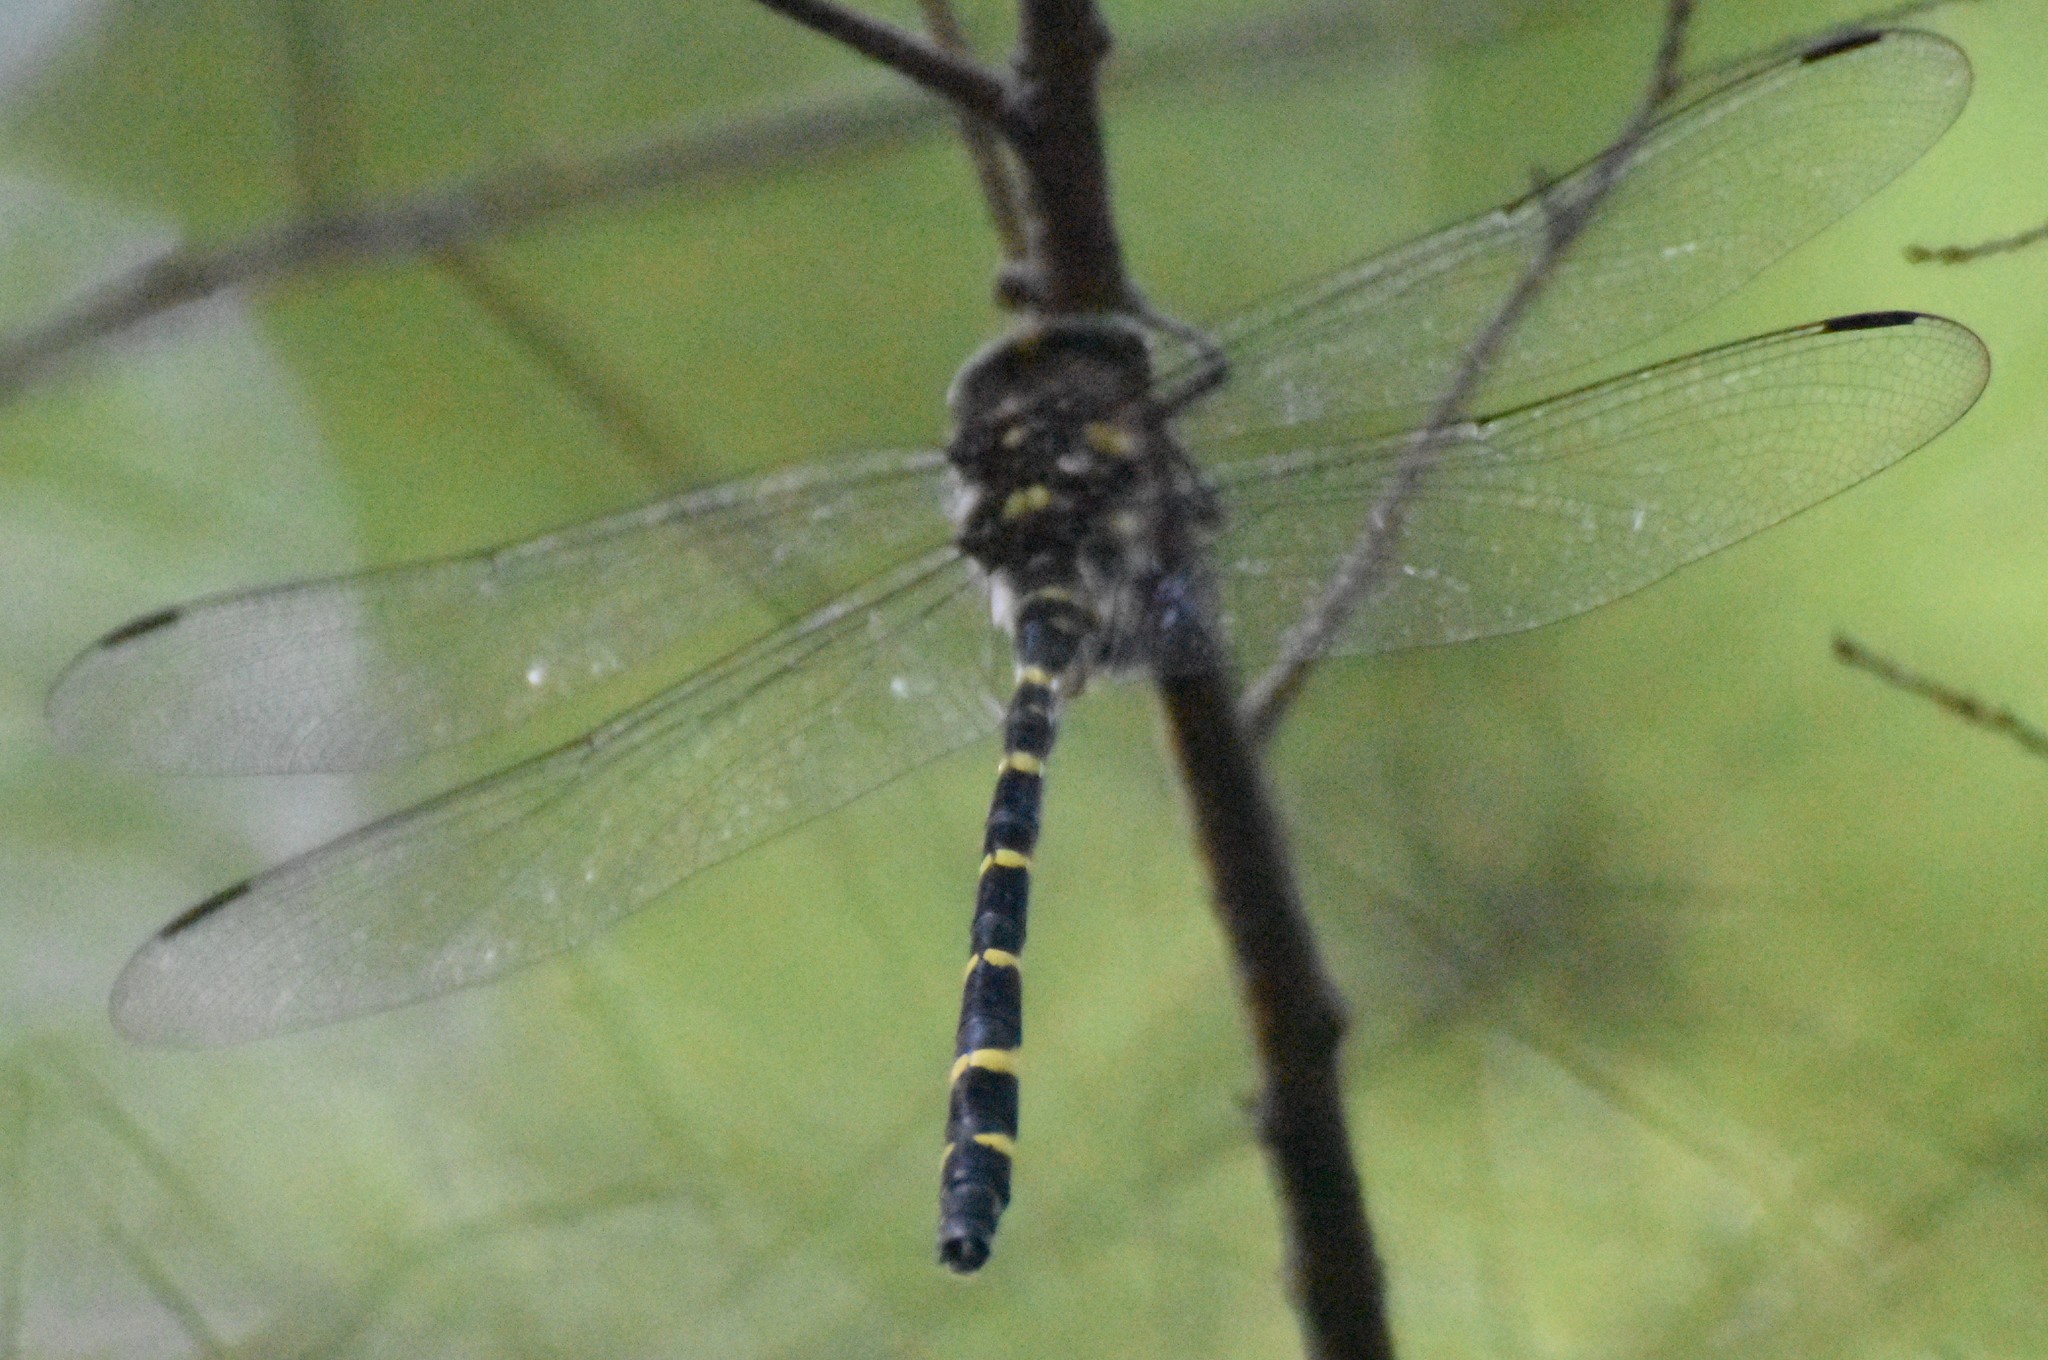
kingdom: Animalia
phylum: Arthropoda
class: Insecta
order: Odonata
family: Cordulegastridae
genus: Cordulegaster
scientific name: Cordulegaster erronea
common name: Tiger spiketail
